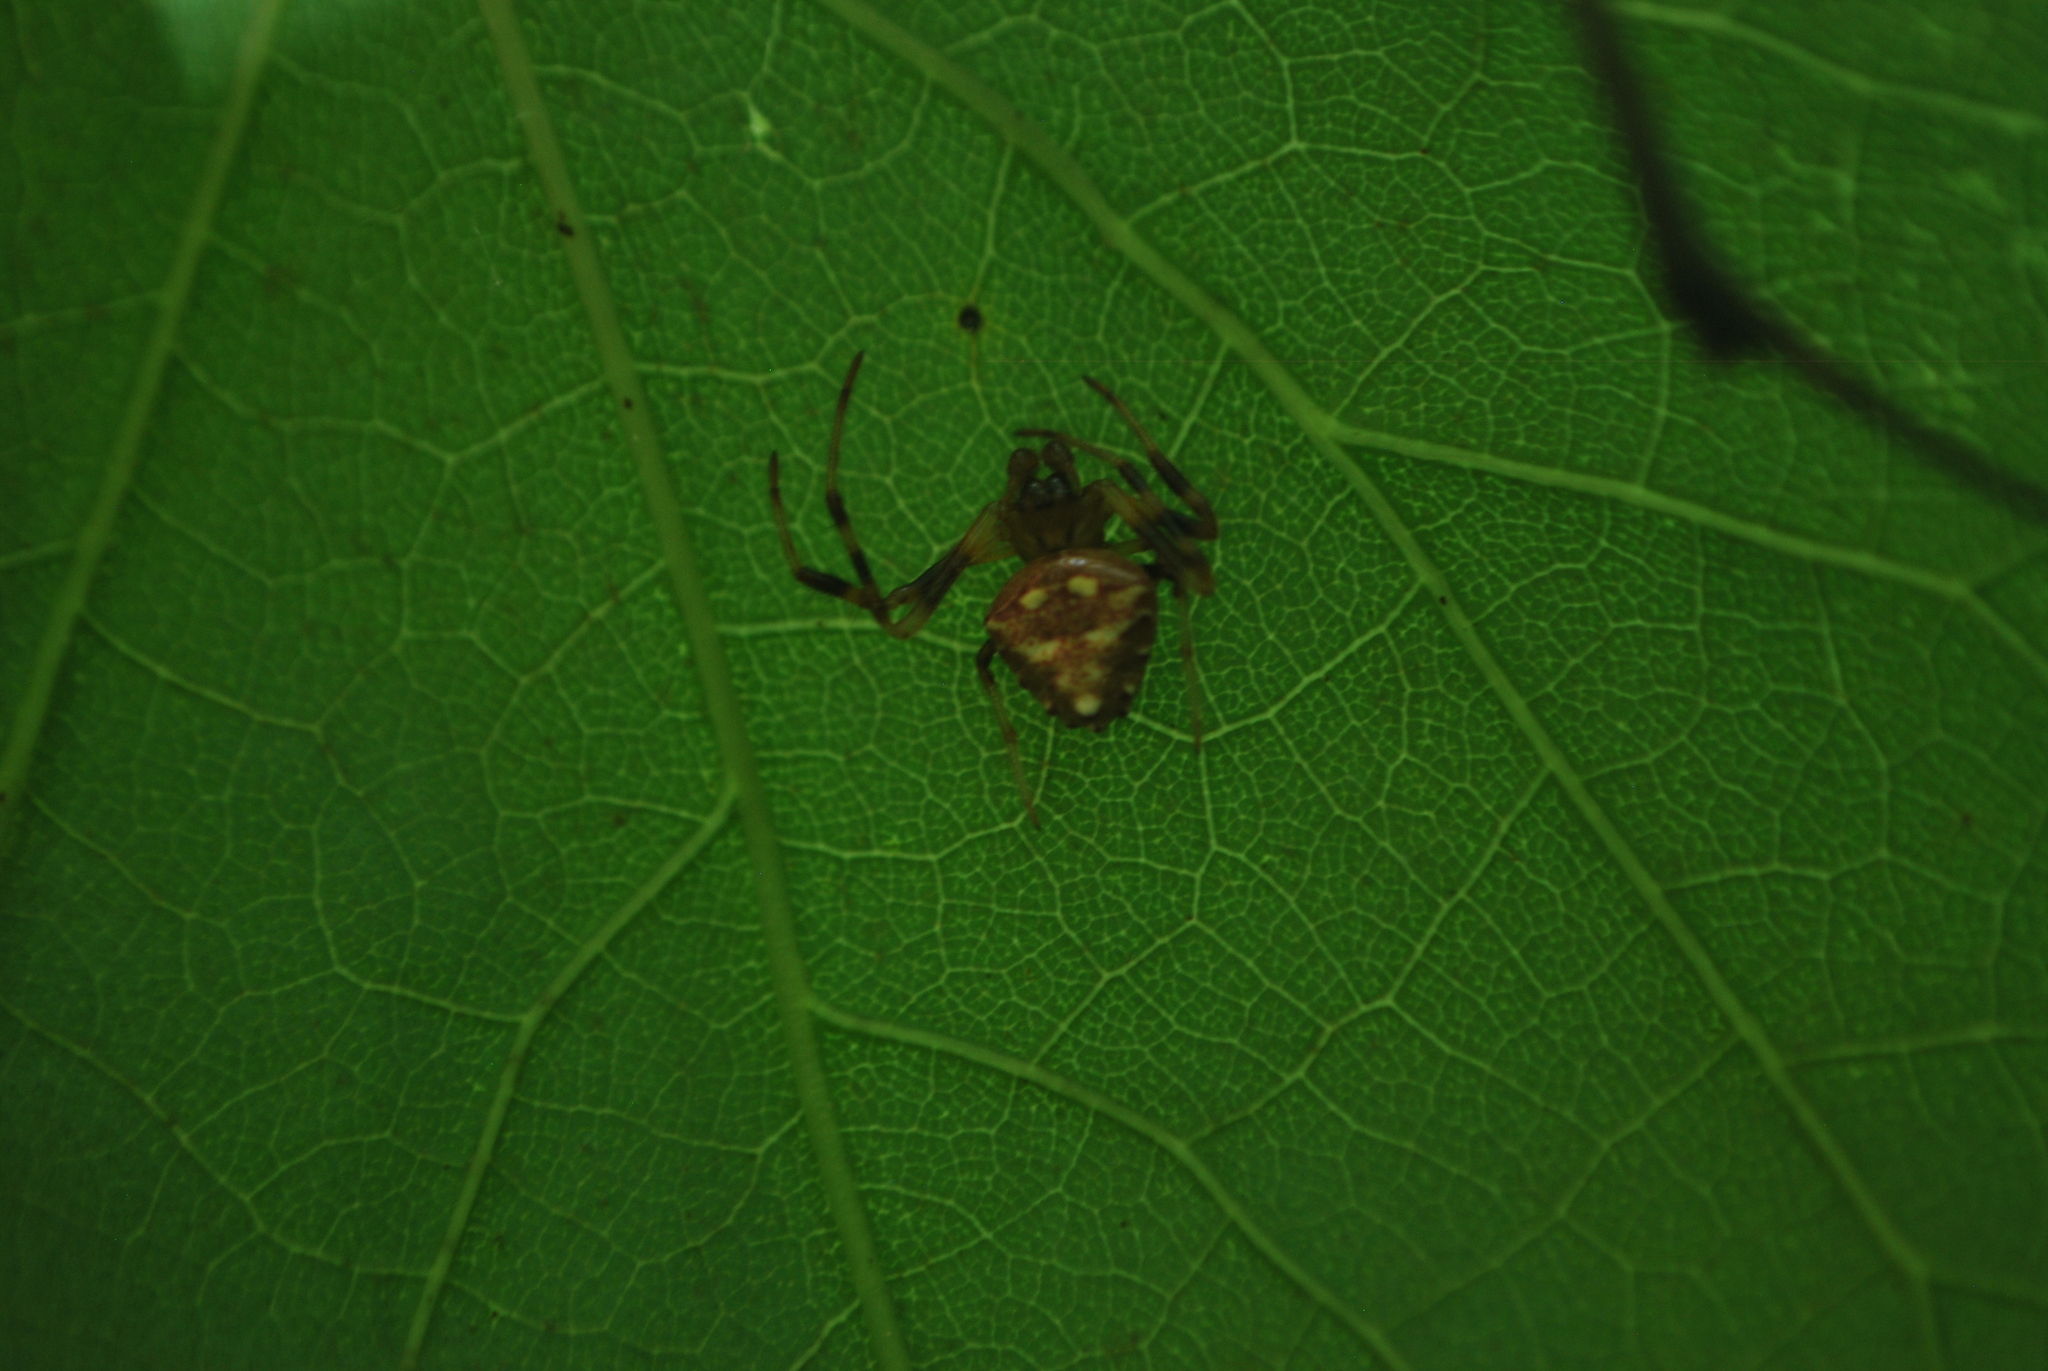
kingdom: Animalia
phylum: Arthropoda
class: Arachnida
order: Araneae
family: Araneidae
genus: Verrucosa
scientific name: Verrucosa arenata
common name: Orb weavers
